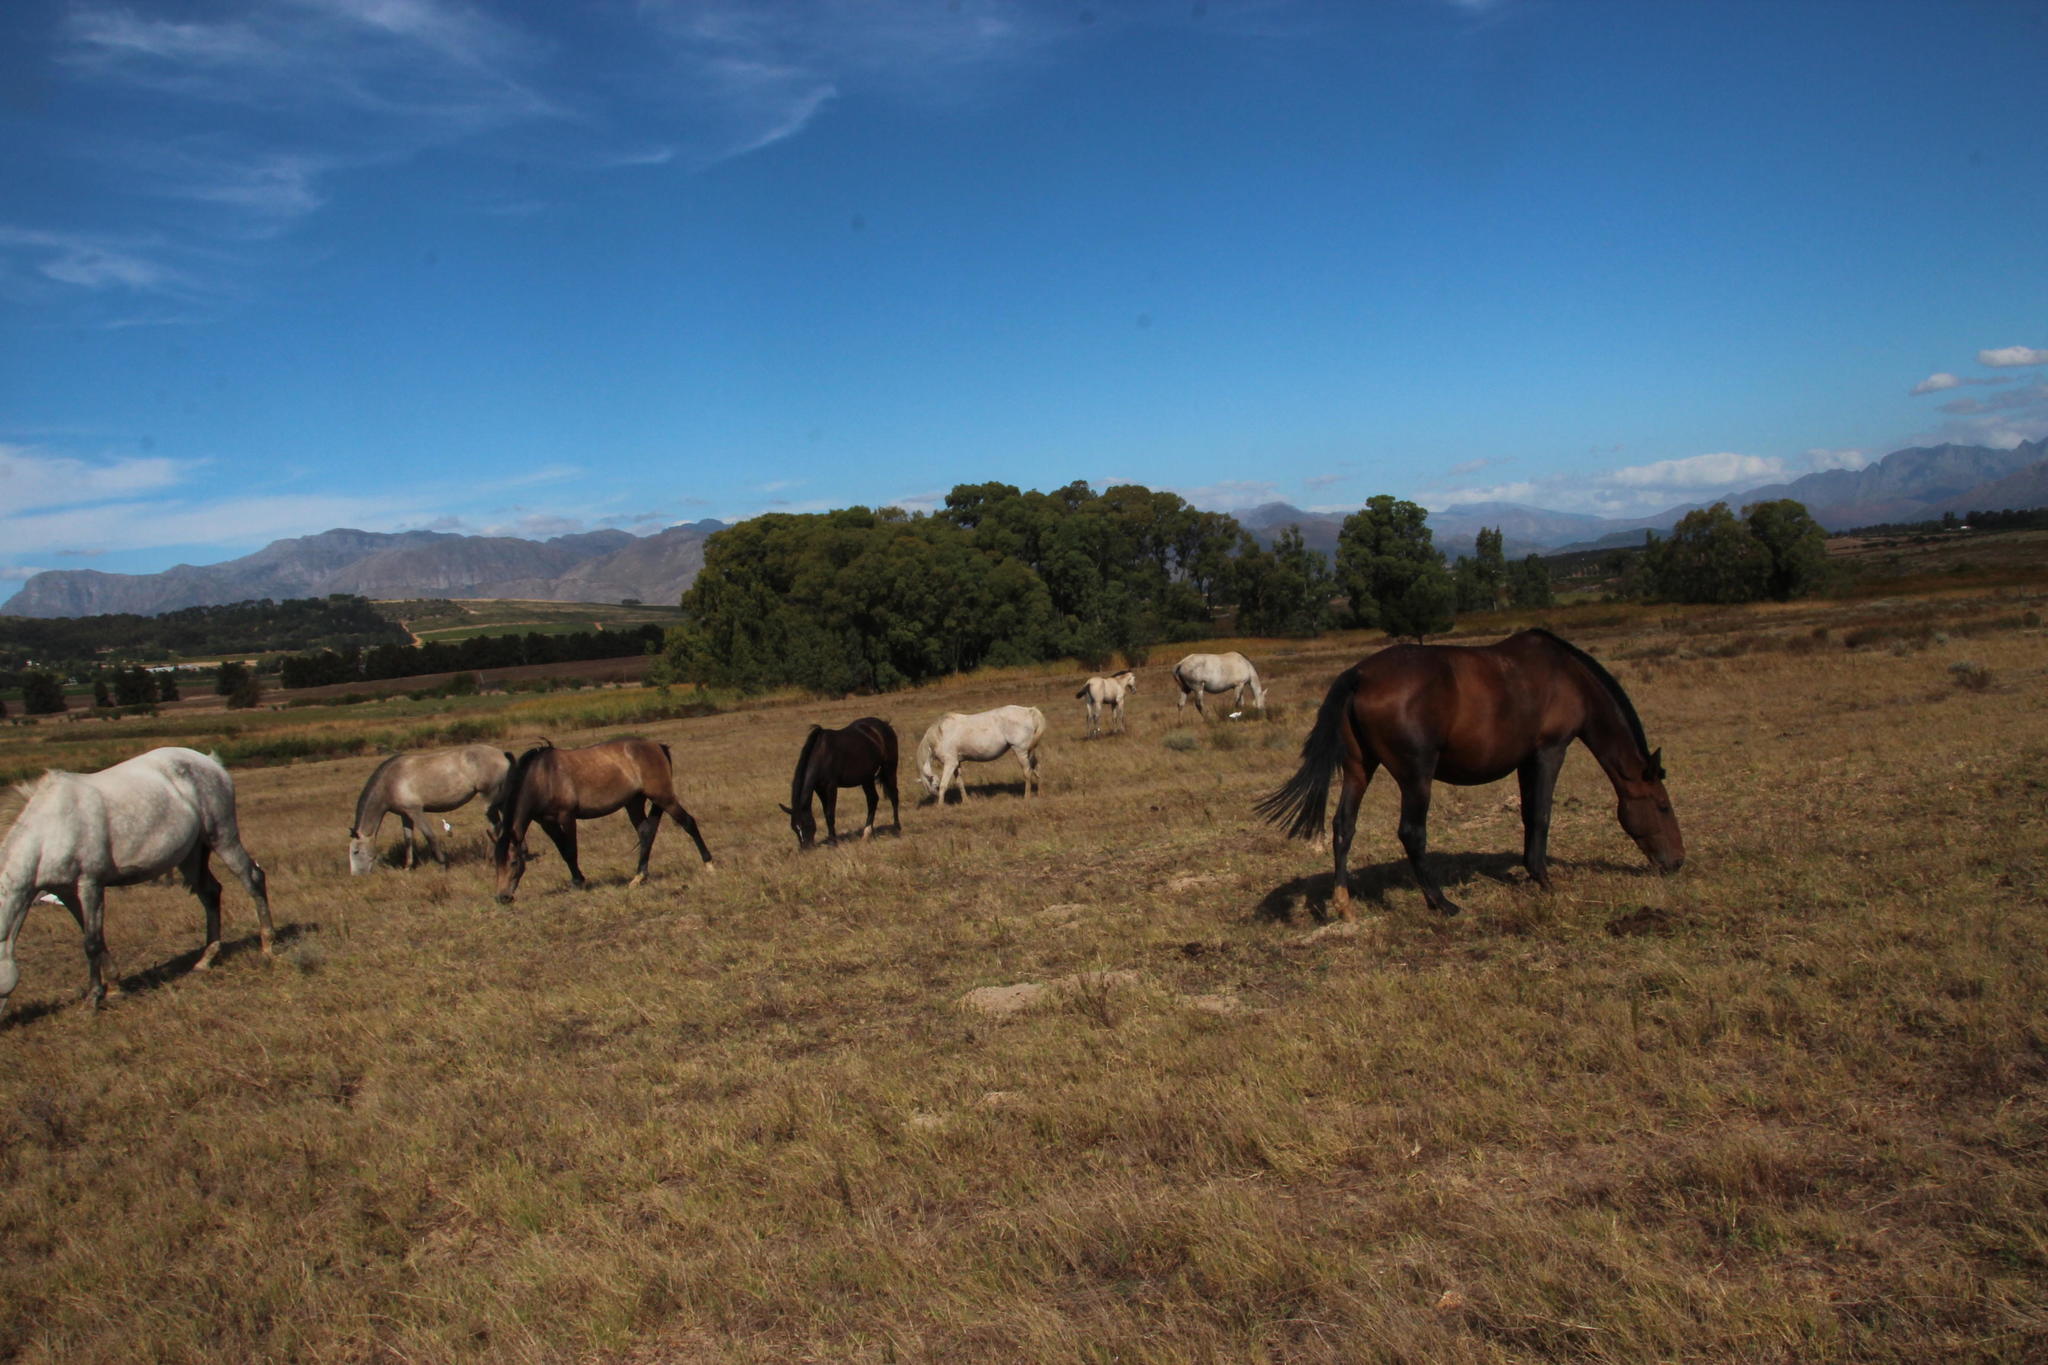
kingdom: Animalia
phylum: Chordata
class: Mammalia
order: Perissodactyla
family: Equidae
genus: Equus
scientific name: Equus caballus
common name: Horse
